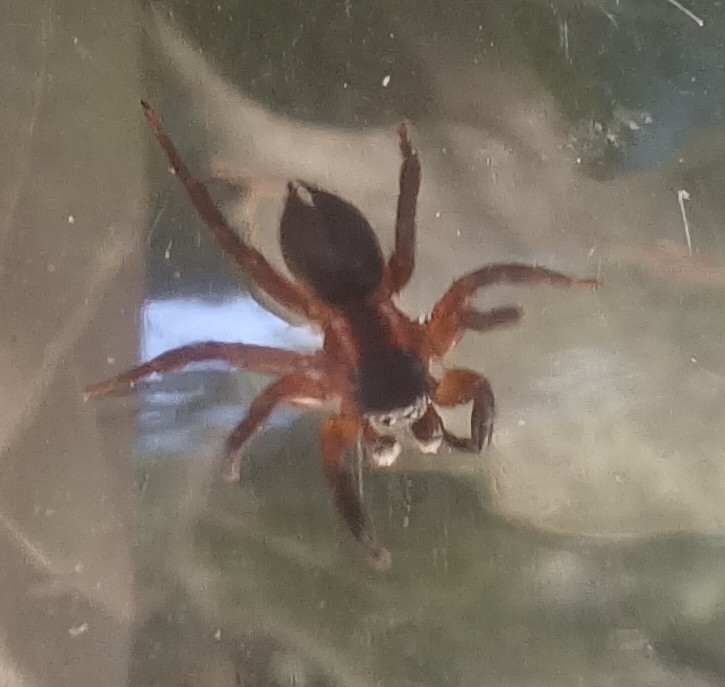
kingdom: Animalia
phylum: Arthropoda
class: Arachnida
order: Araneae
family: Salticidae
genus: Phlegra
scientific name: Phlegra fasciata
